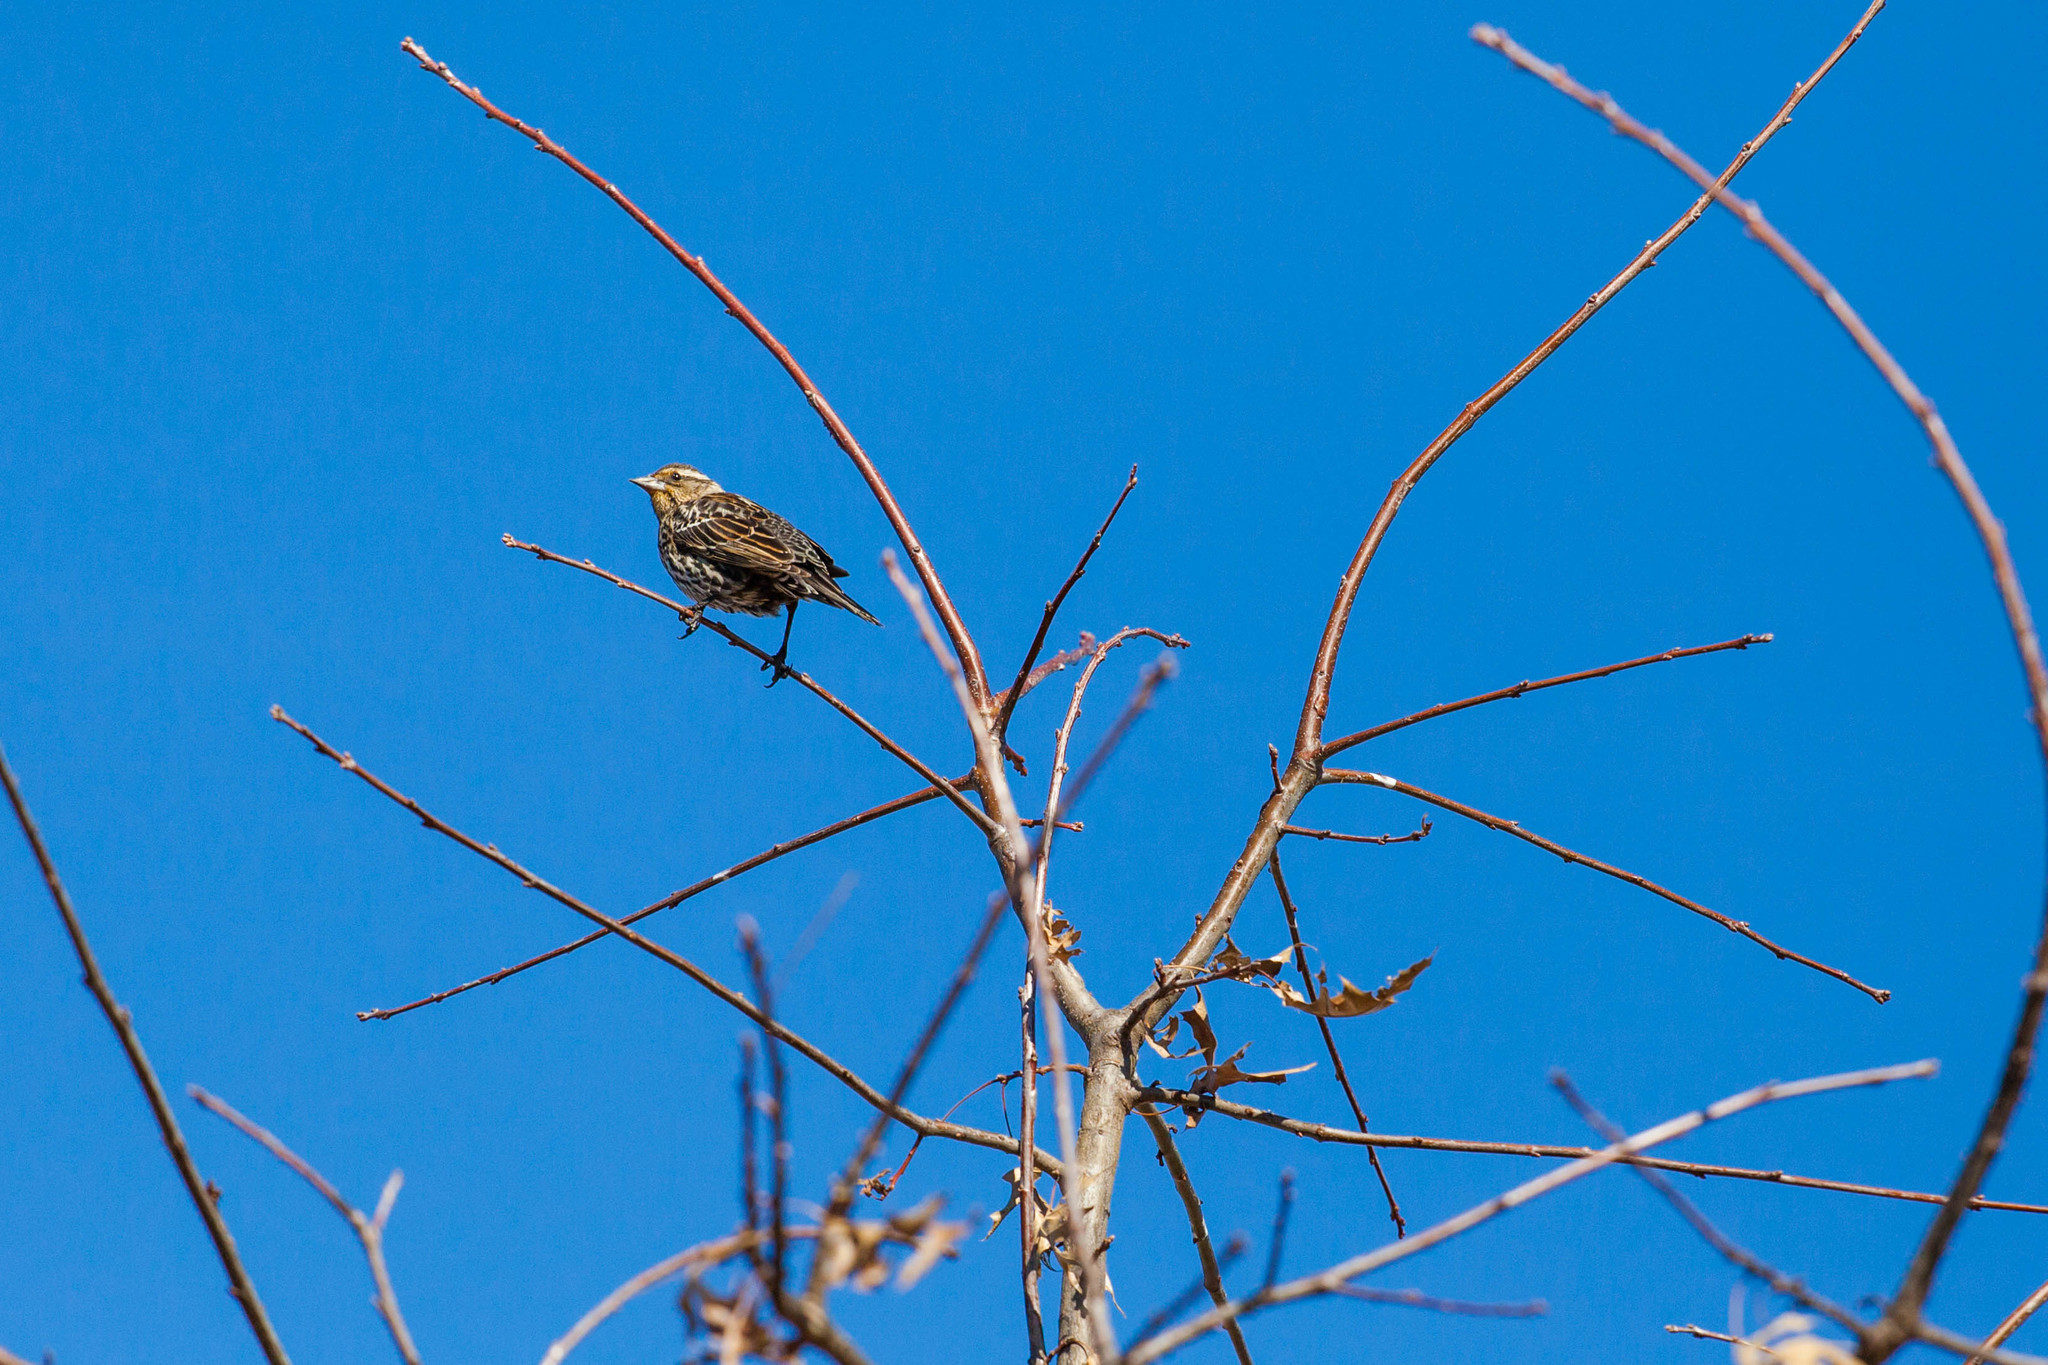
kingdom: Animalia
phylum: Chordata
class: Aves
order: Passeriformes
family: Icteridae
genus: Agelaius
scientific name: Agelaius phoeniceus
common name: Red-winged blackbird
